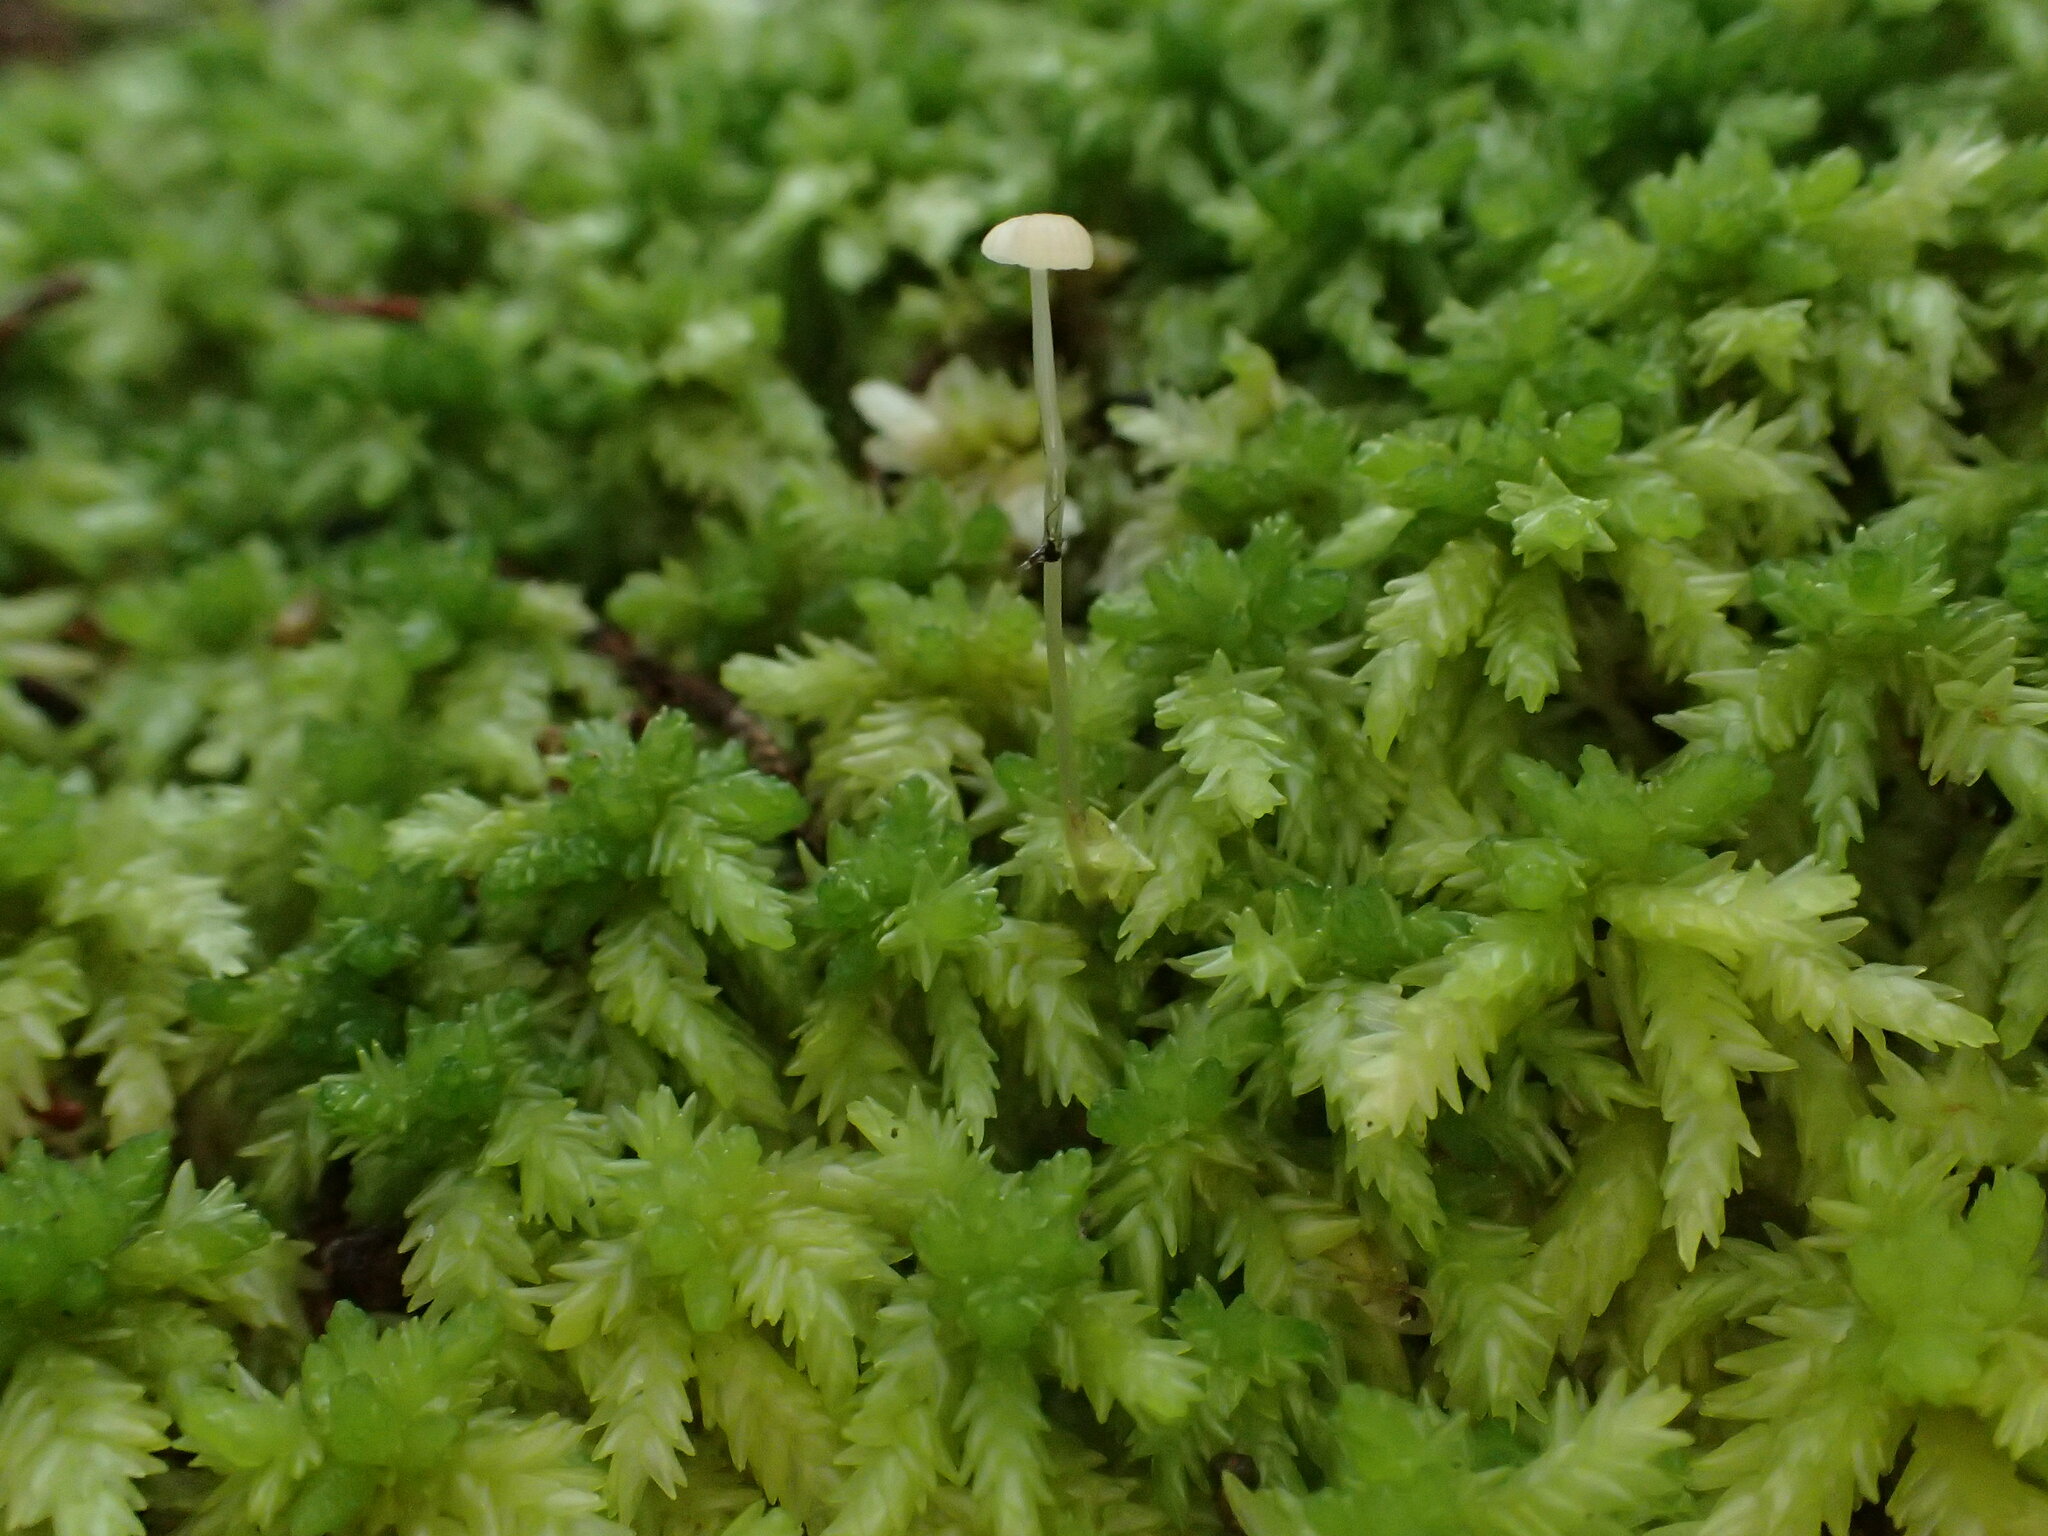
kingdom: Fungi
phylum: Basidiomycota
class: Agaricomycetes
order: Agaricales
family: Mycenaceae
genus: Roridomyces
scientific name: Roridomyces roridus
